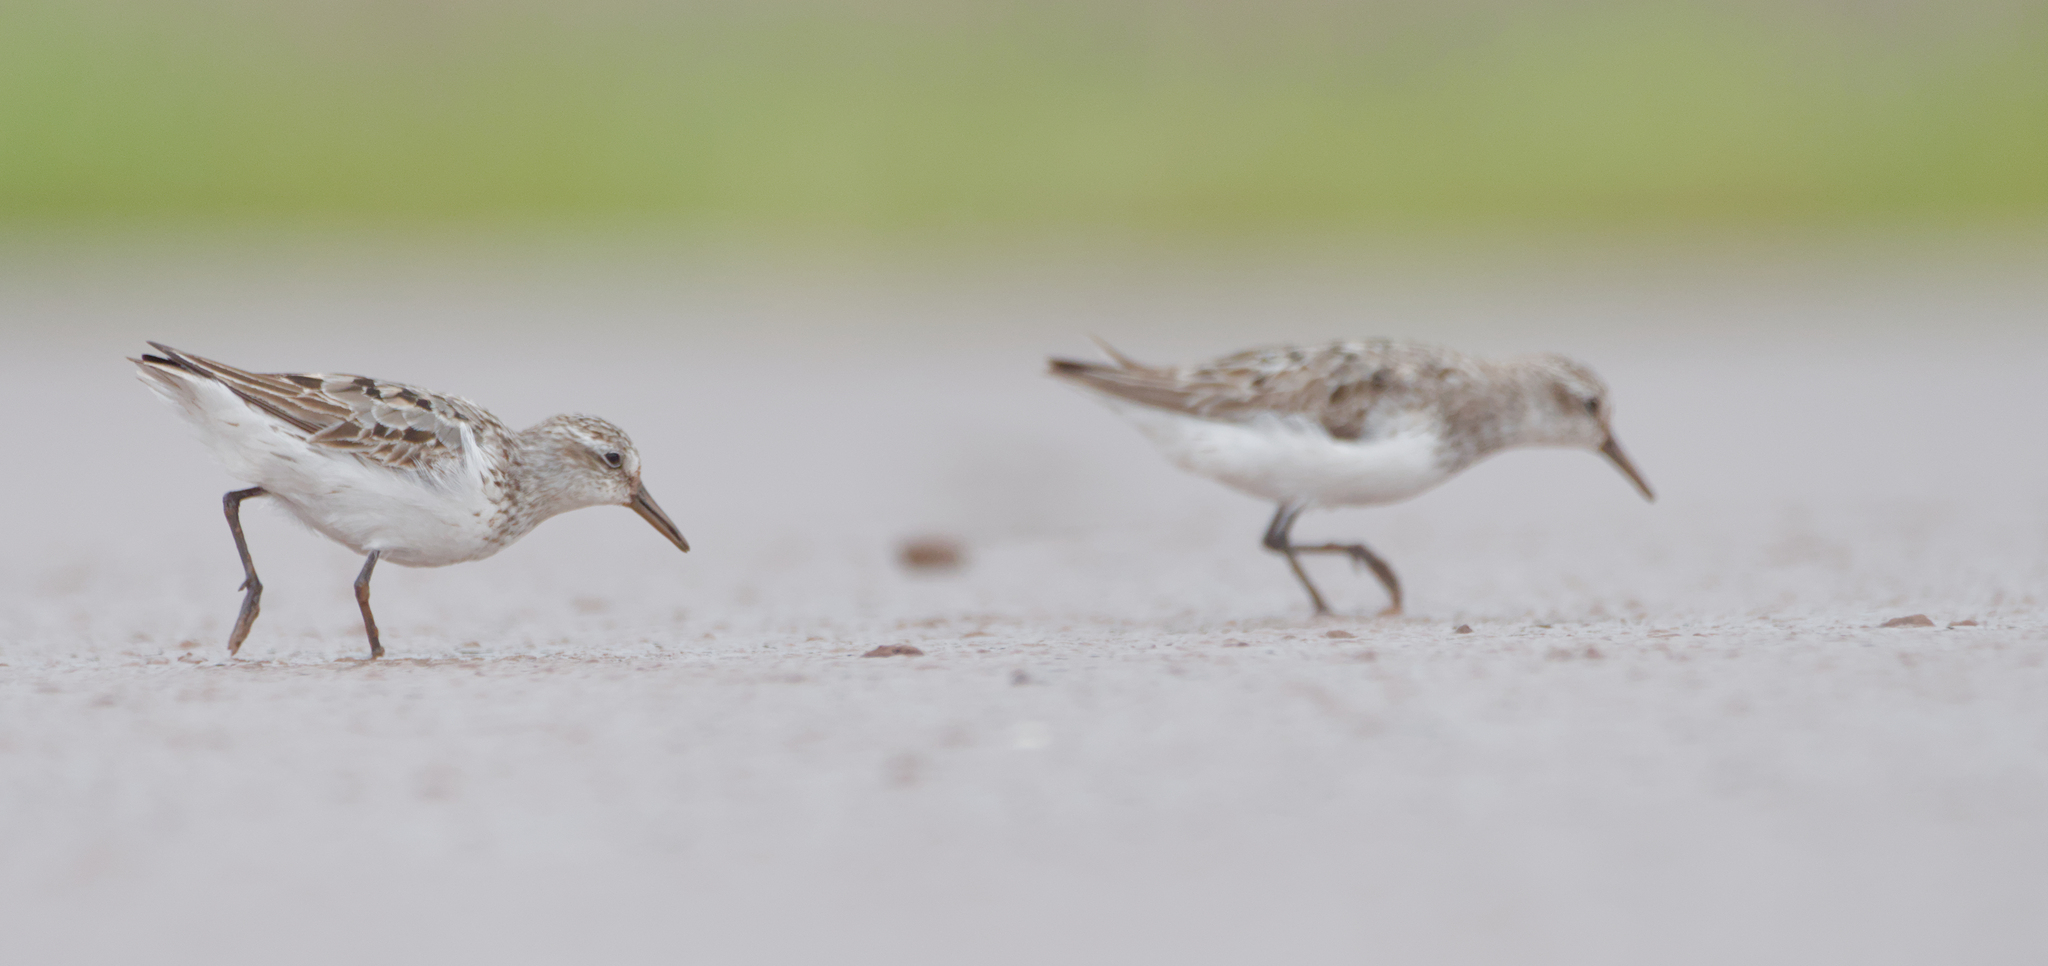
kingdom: Animalia
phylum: Chordata
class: Aves
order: Charadriiformes
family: Scolopacidae
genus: Calidris
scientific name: Calidris pusilla
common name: Semipalmated sandpiper
